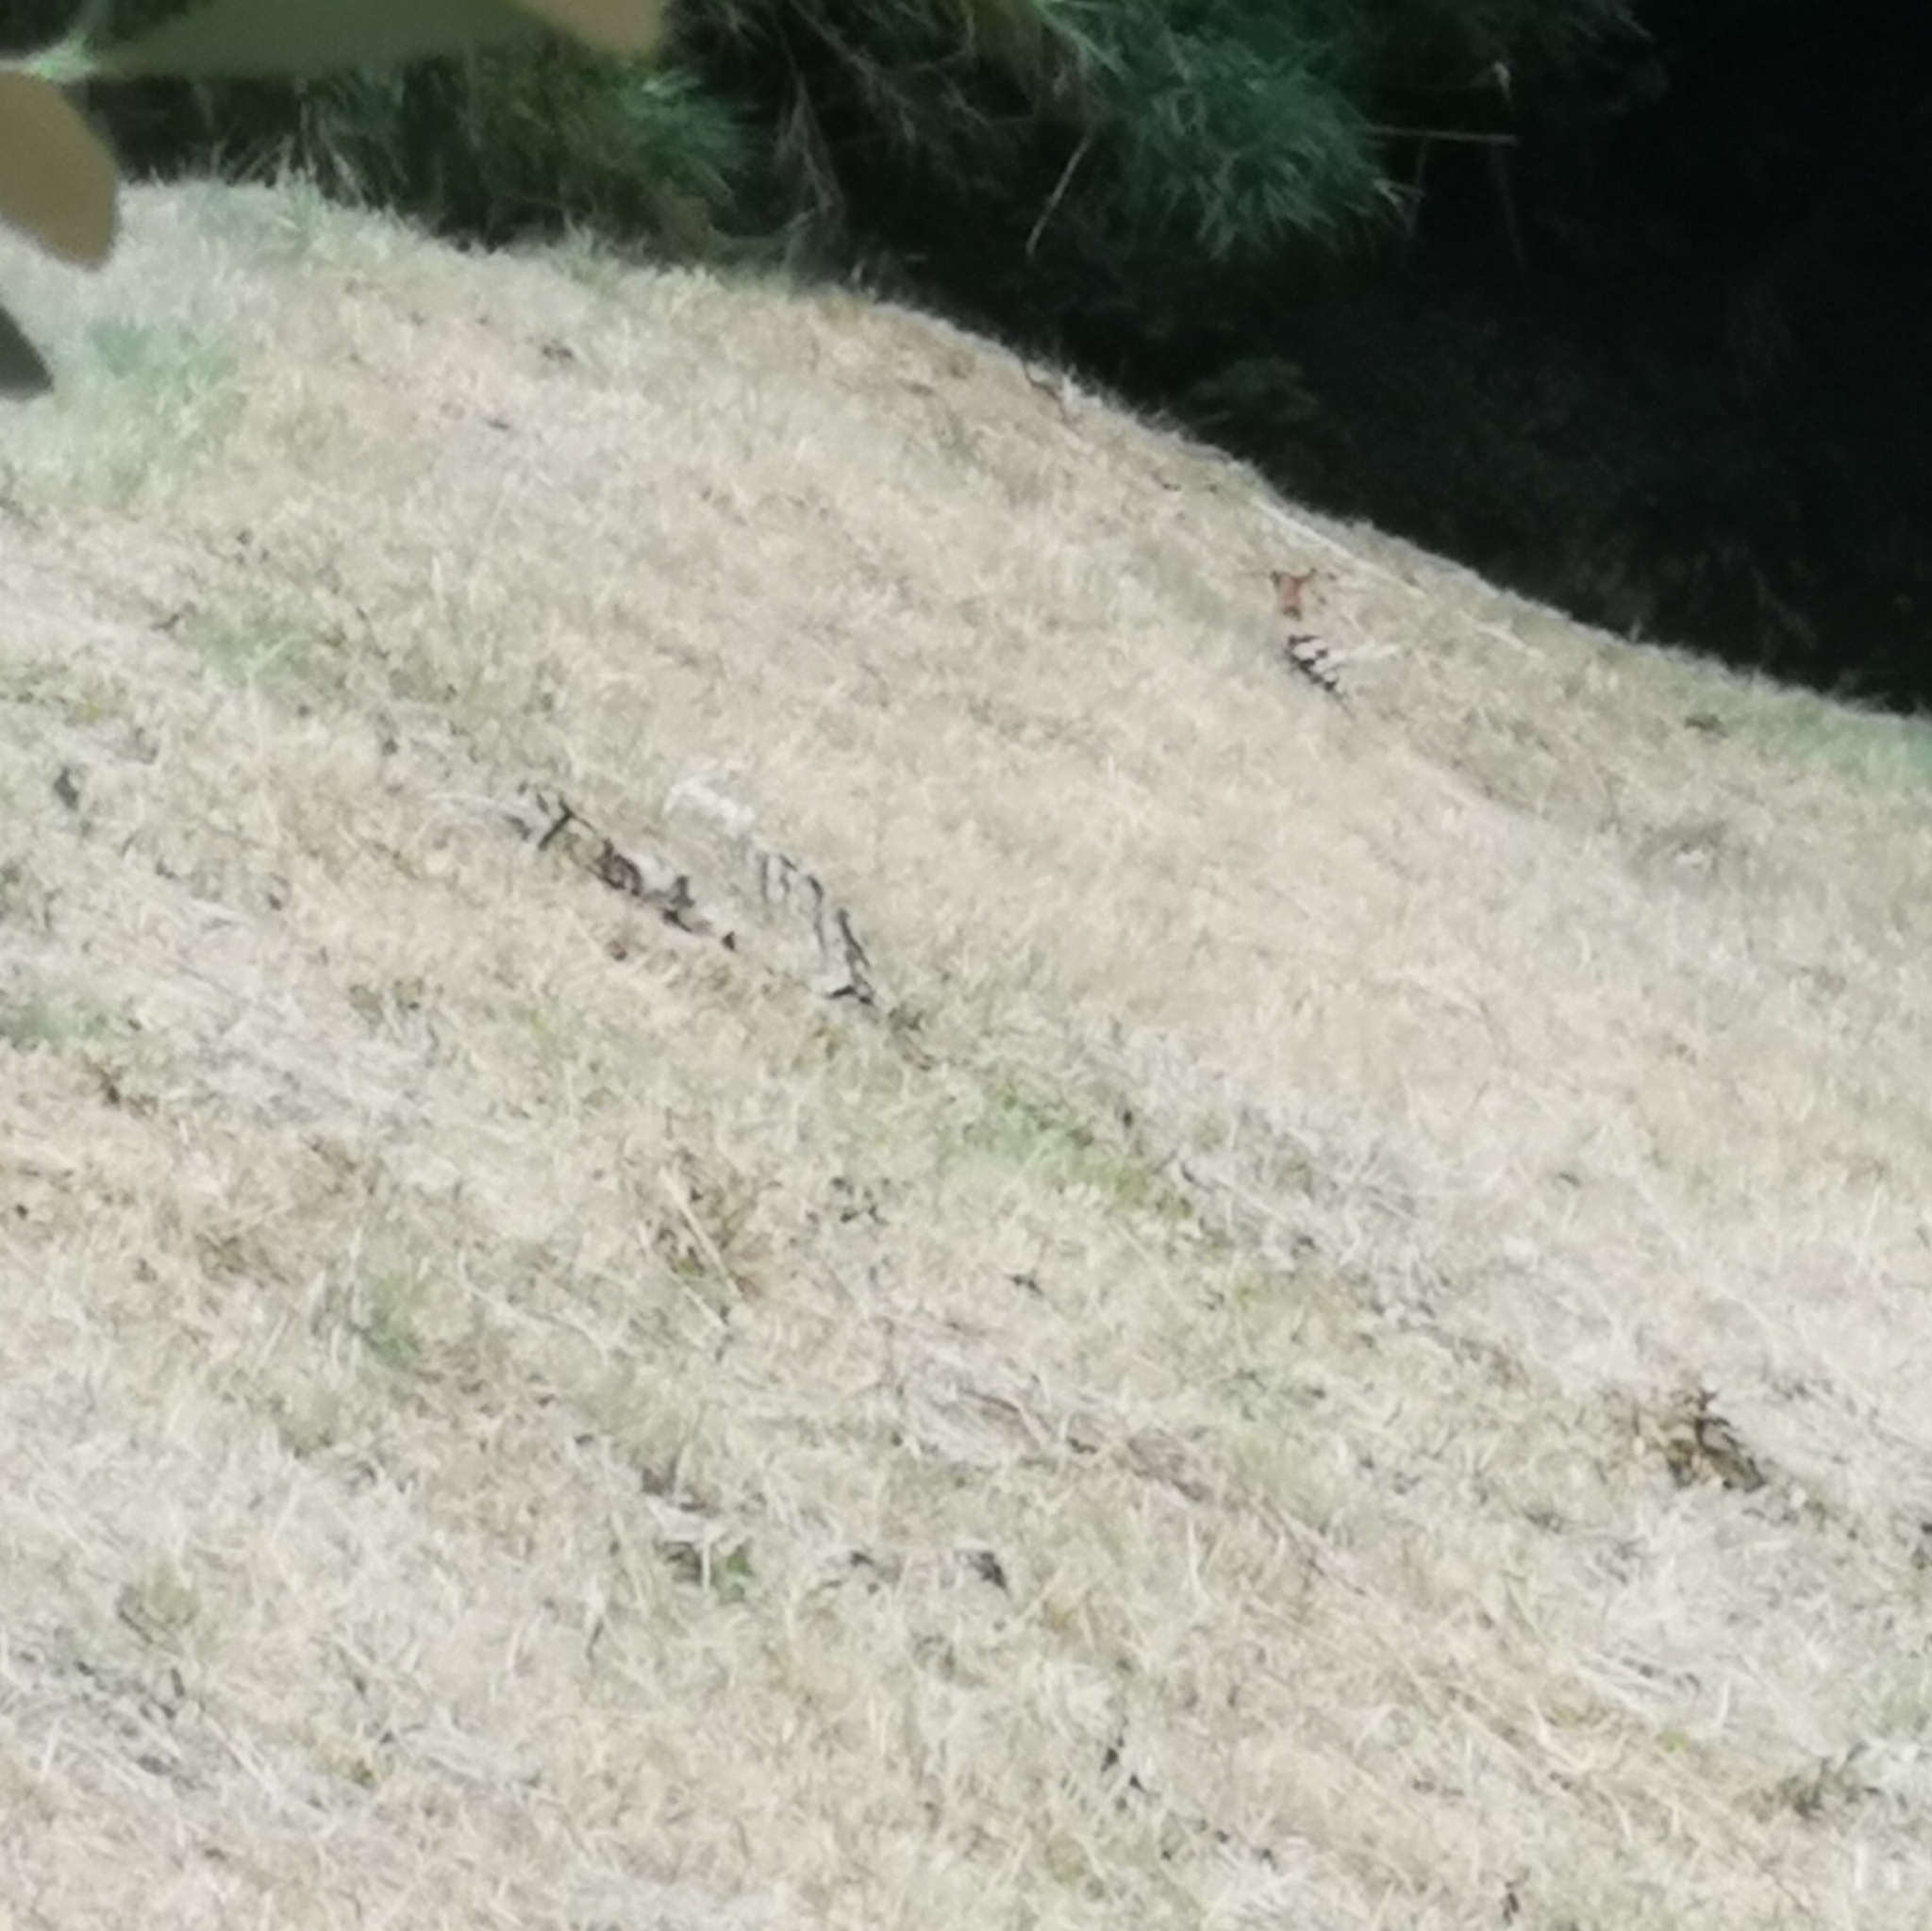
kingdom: Animalia
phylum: Chordata
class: Aves
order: Bucerotiformes
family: Upupidae
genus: Upupa
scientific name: Upupa epops
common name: Eurasian hoopoe
